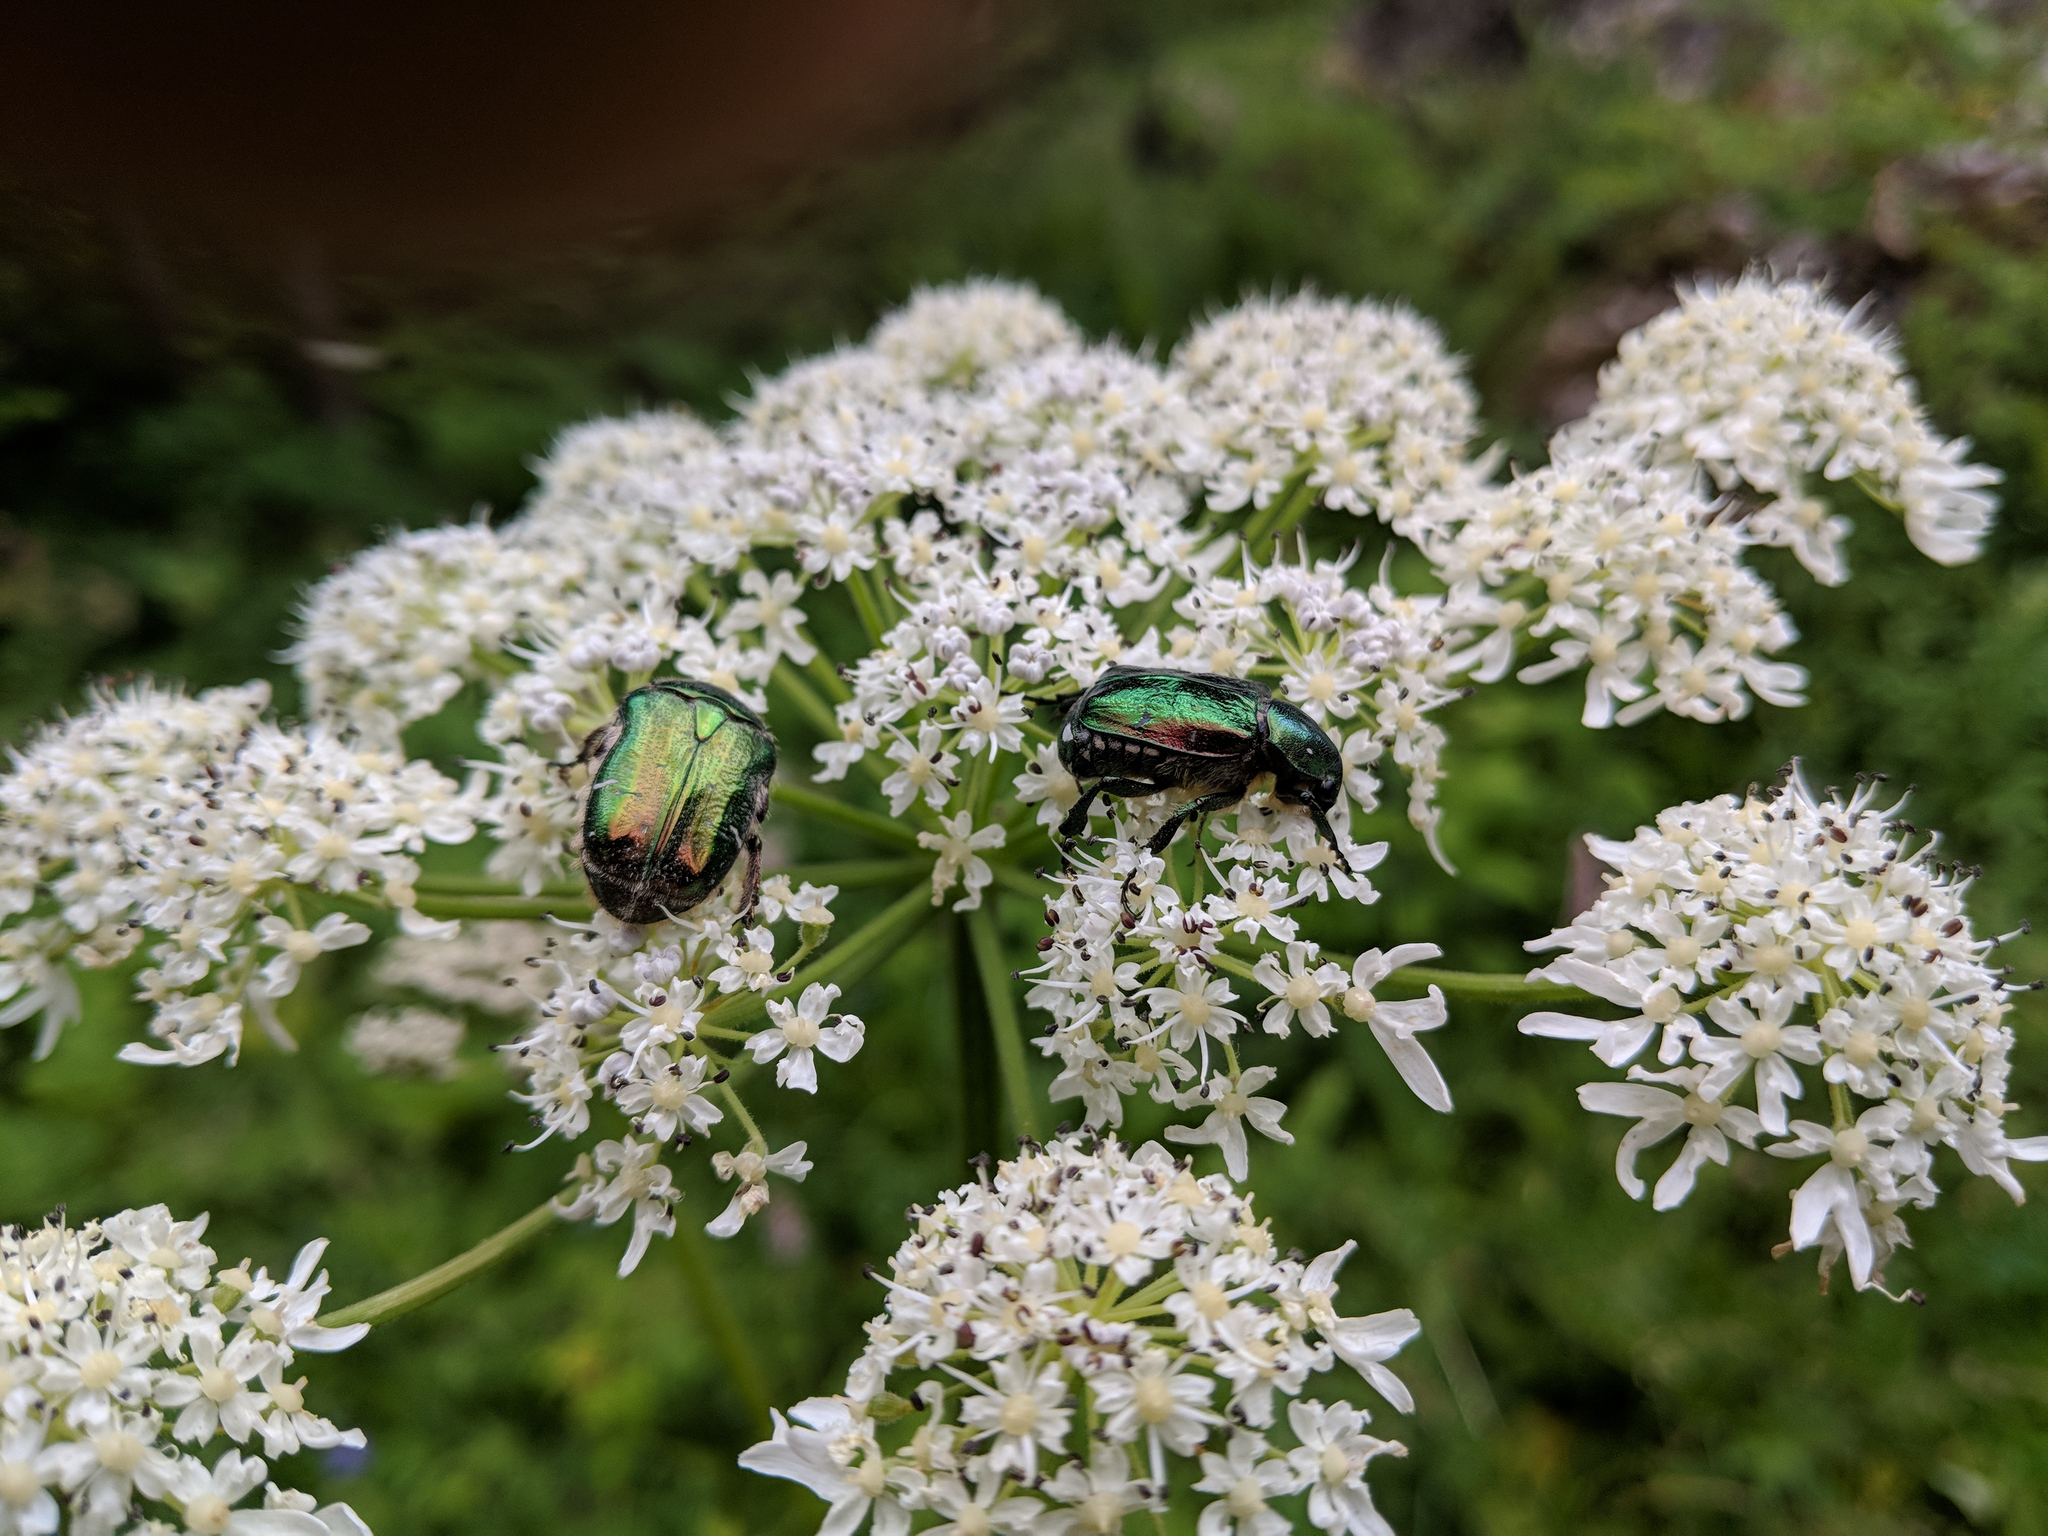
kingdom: Animalia
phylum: Arthropoda
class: Insecta
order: Coleoptera
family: Scarabaeidae
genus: Cetonia
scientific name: Cetonia aurata
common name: Rose chafer
